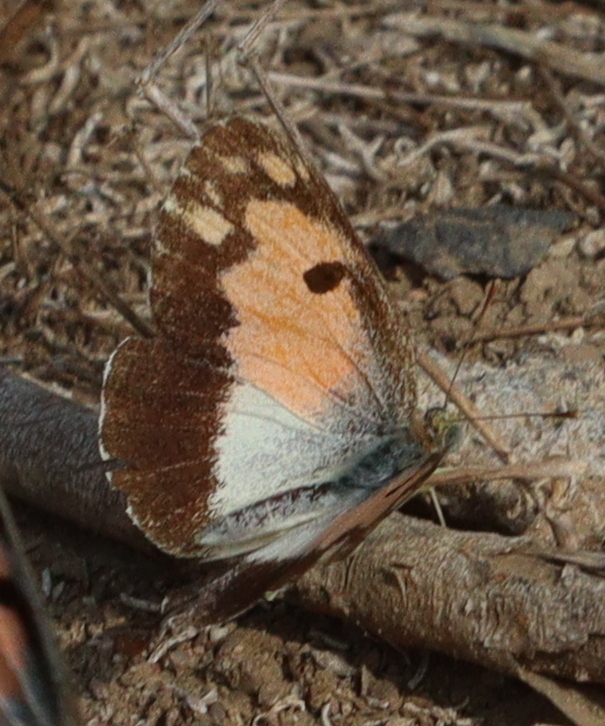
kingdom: Animalia
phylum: Arthropoda
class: Insecta
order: Lepidoptera
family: Pieridae
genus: Colotis
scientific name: Colotis phisadia
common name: Blue spotted arab
